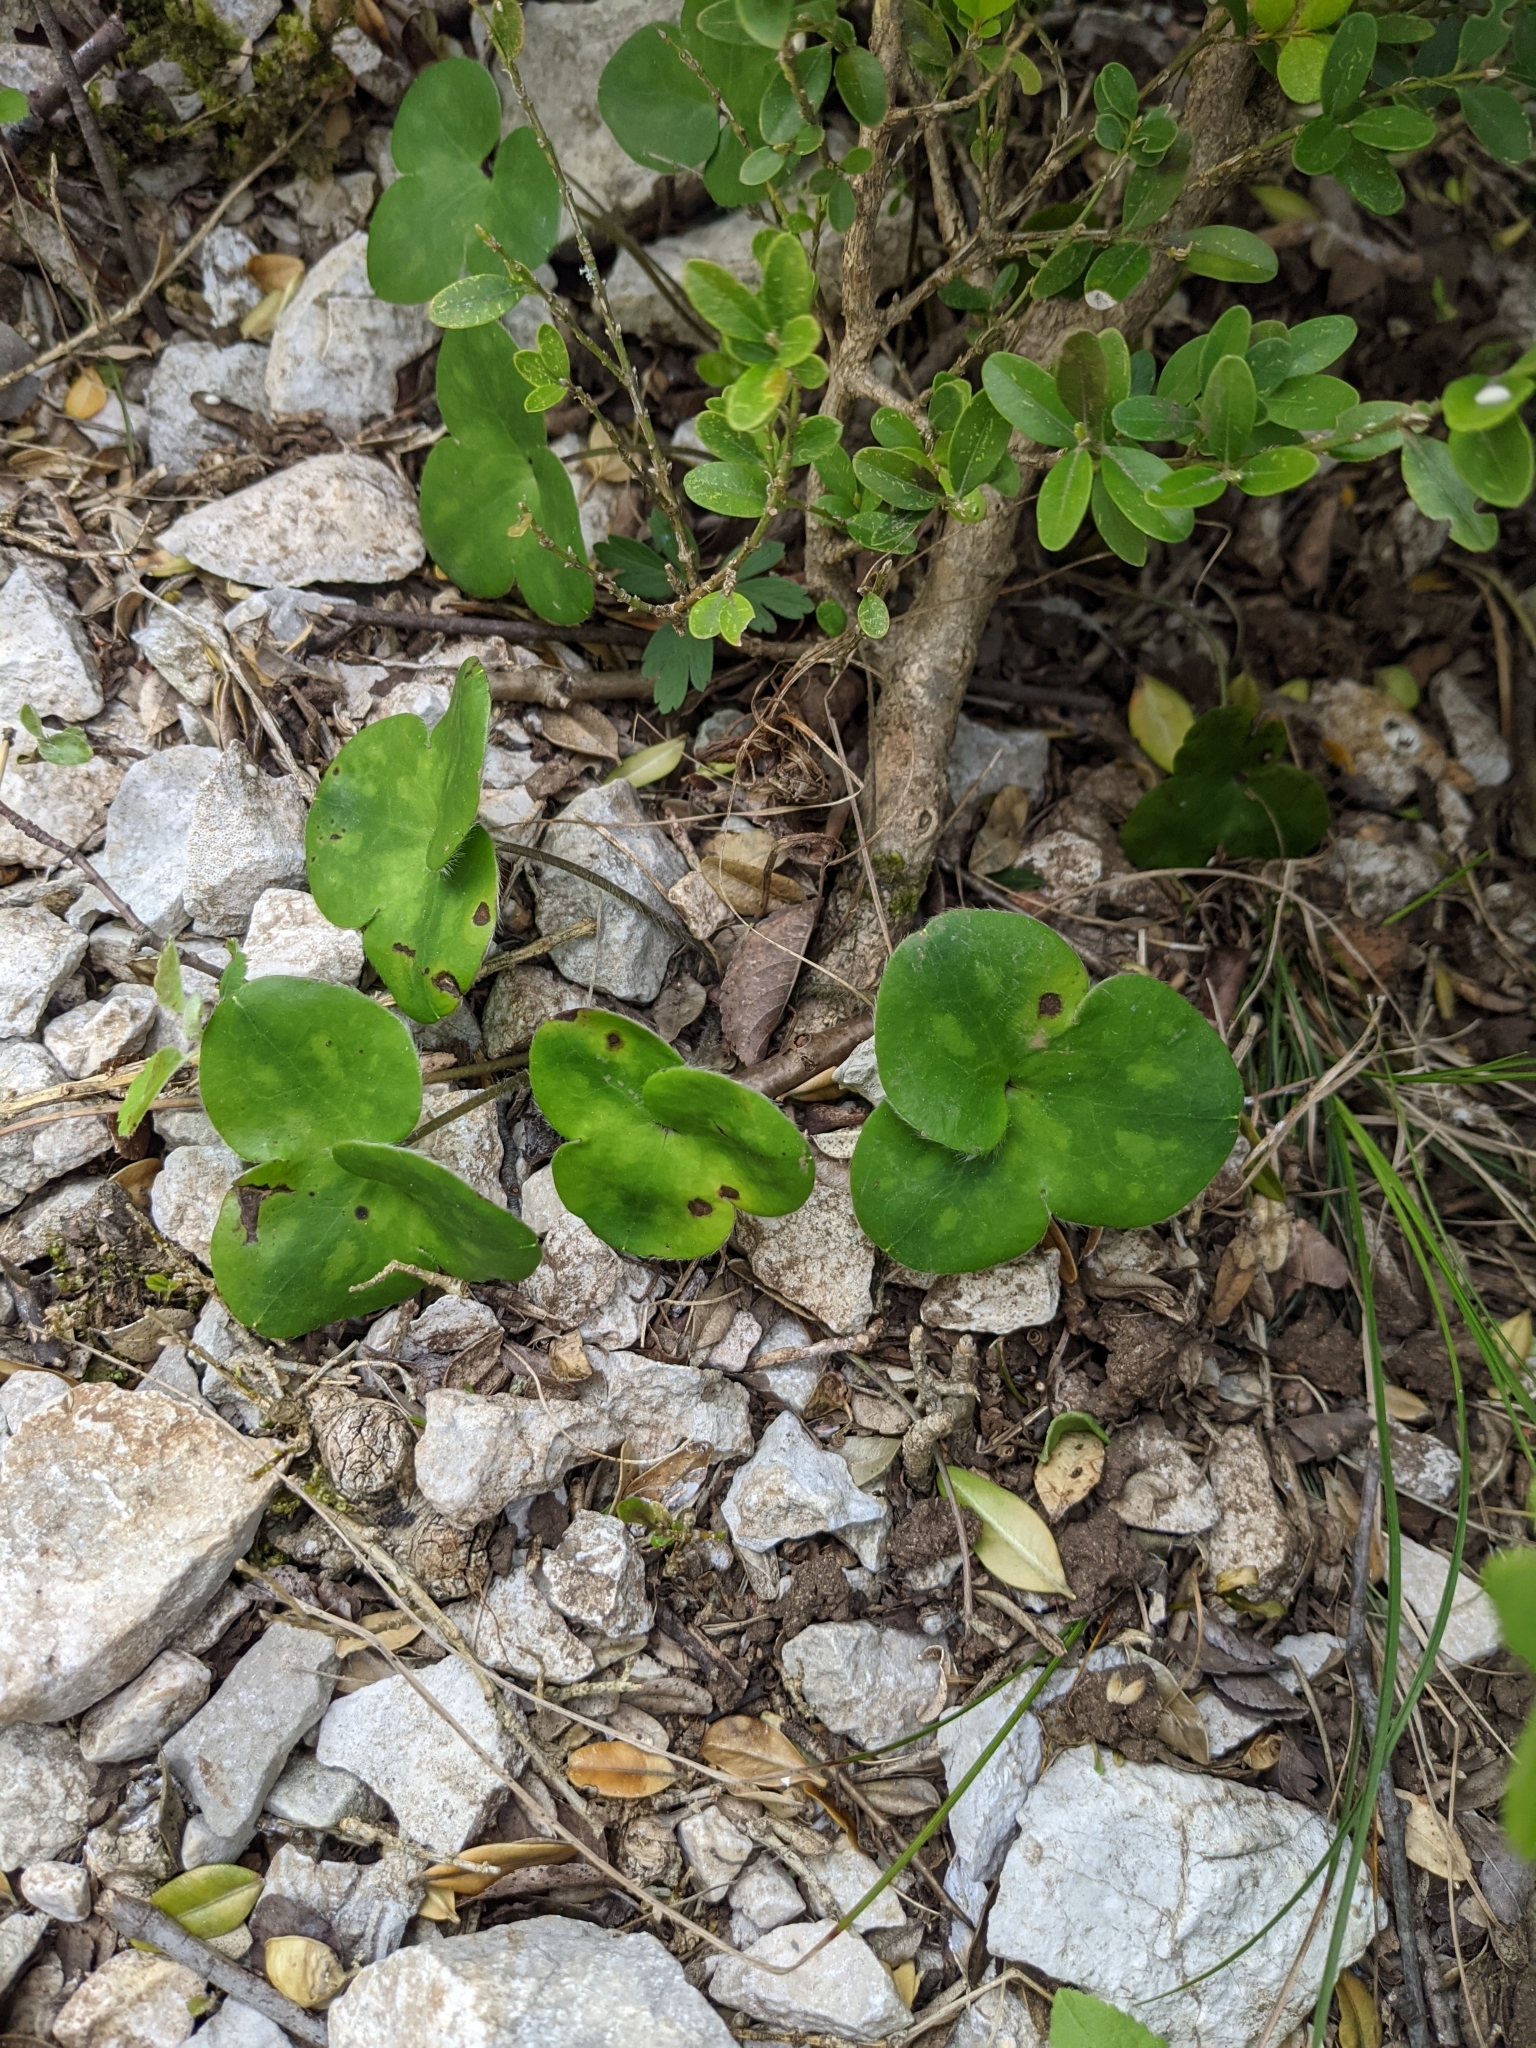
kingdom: Plantae
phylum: Tracheophyta
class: Magnoliopsida
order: Ranunculales
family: Ranunculaceae
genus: Hepatica
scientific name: Hepatica nobilis
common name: Liverleaf
